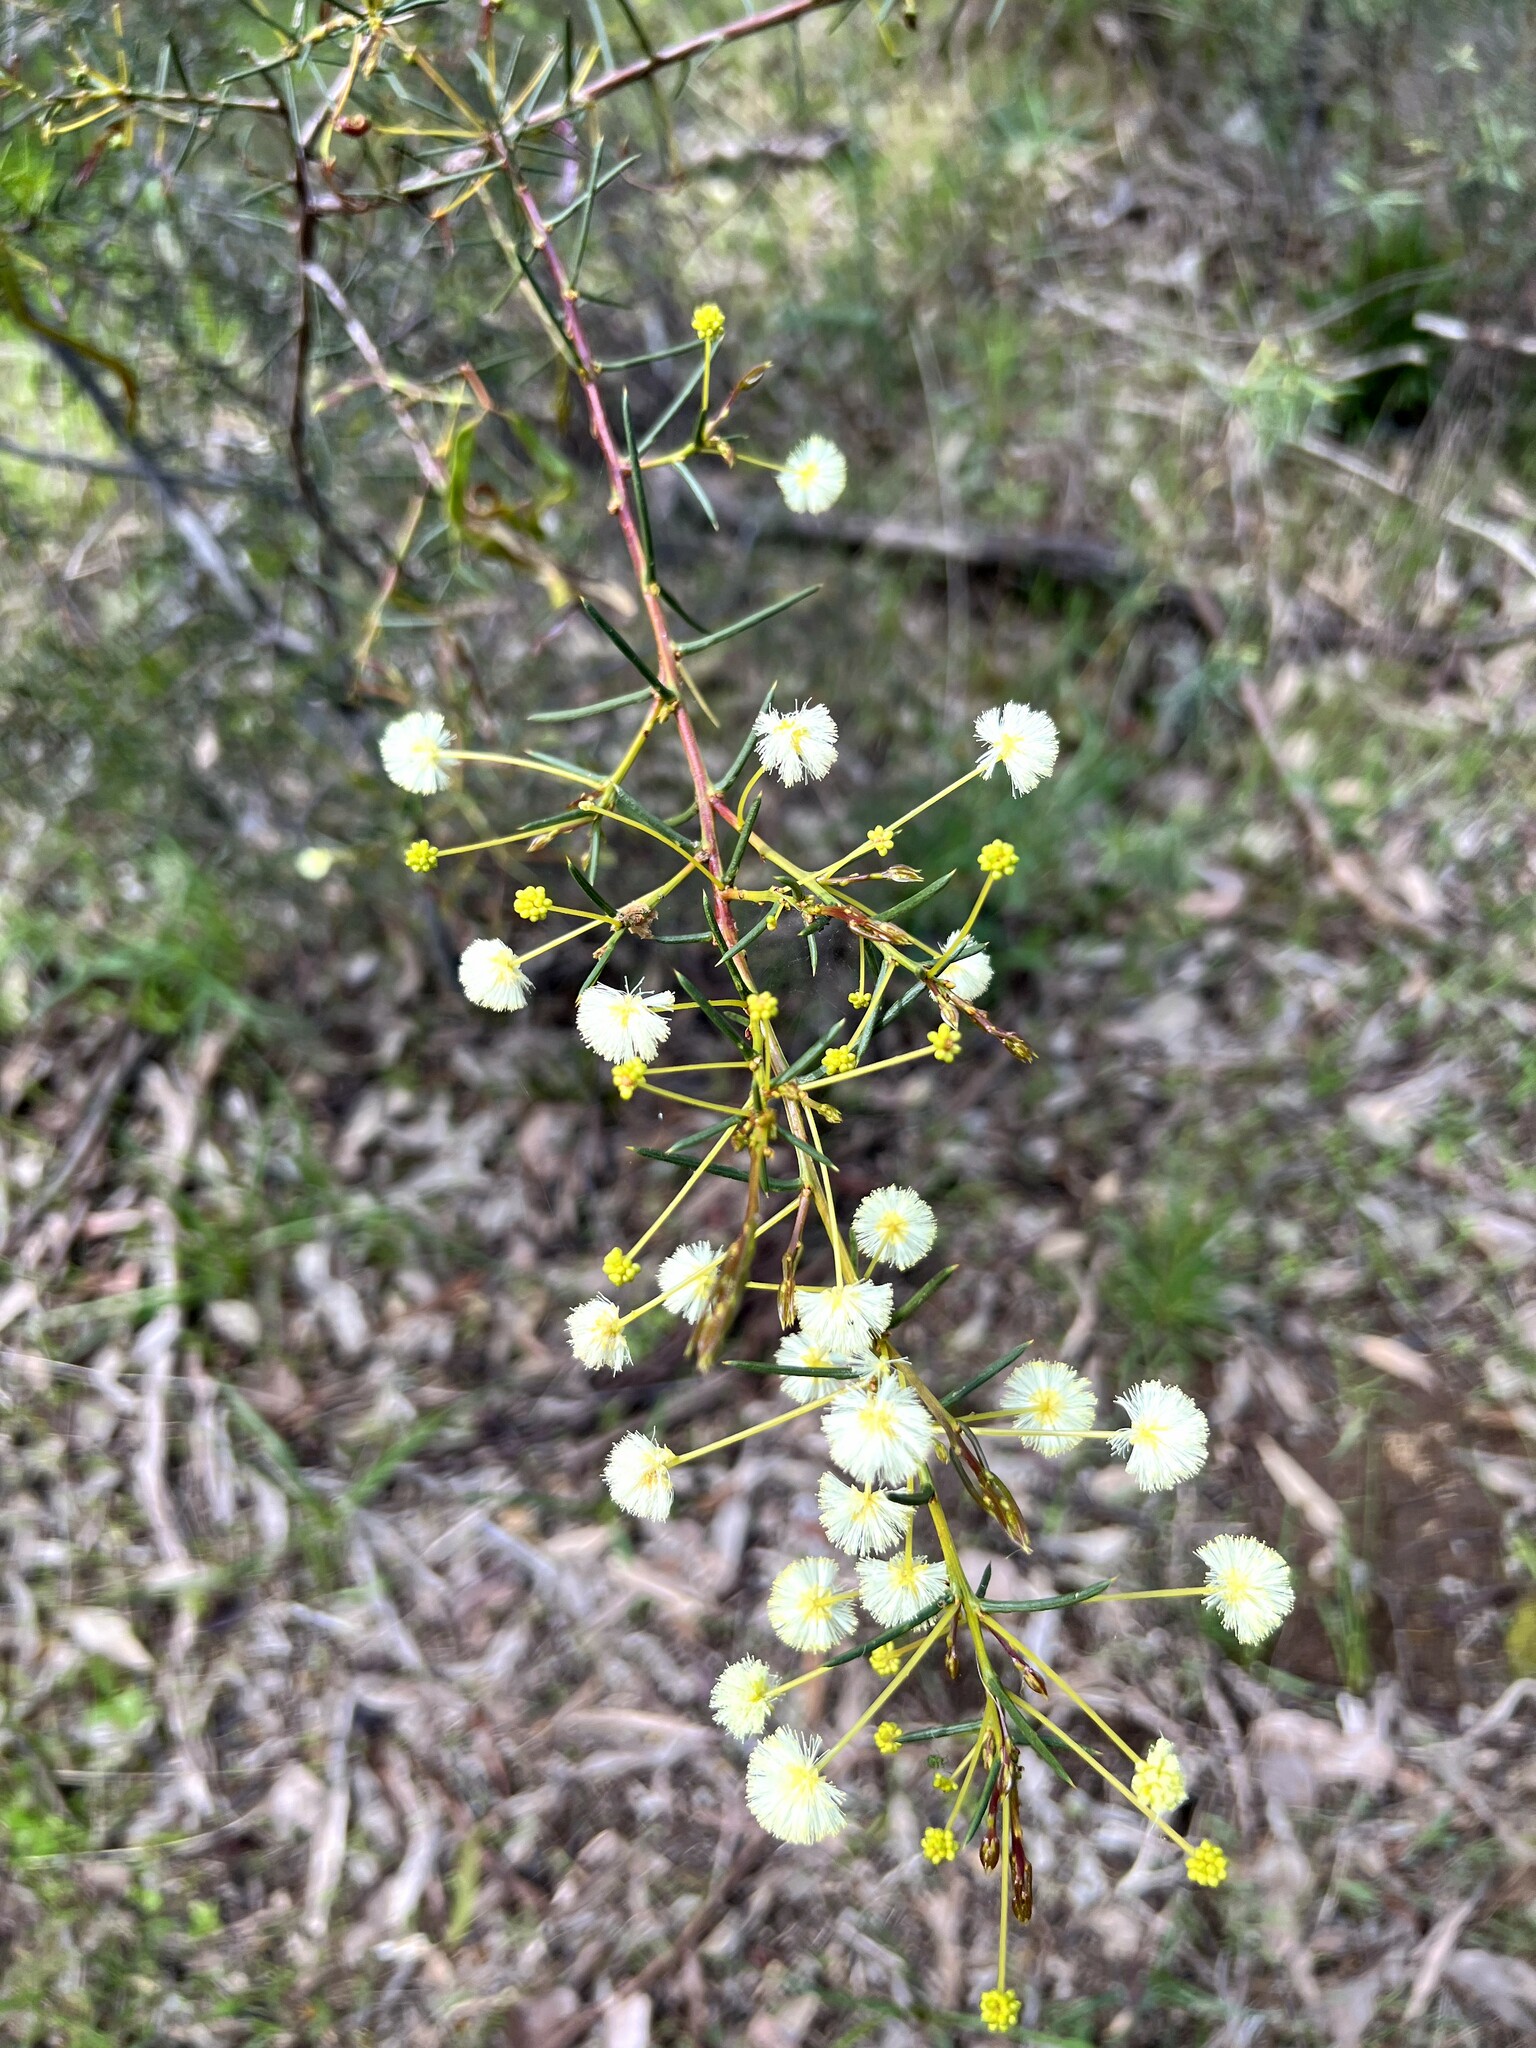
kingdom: Plantae
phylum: Tracheophyta
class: Magnoliopsida
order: Fabales
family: Fabaceae
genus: Acacia
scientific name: Acacia aculeatissima
